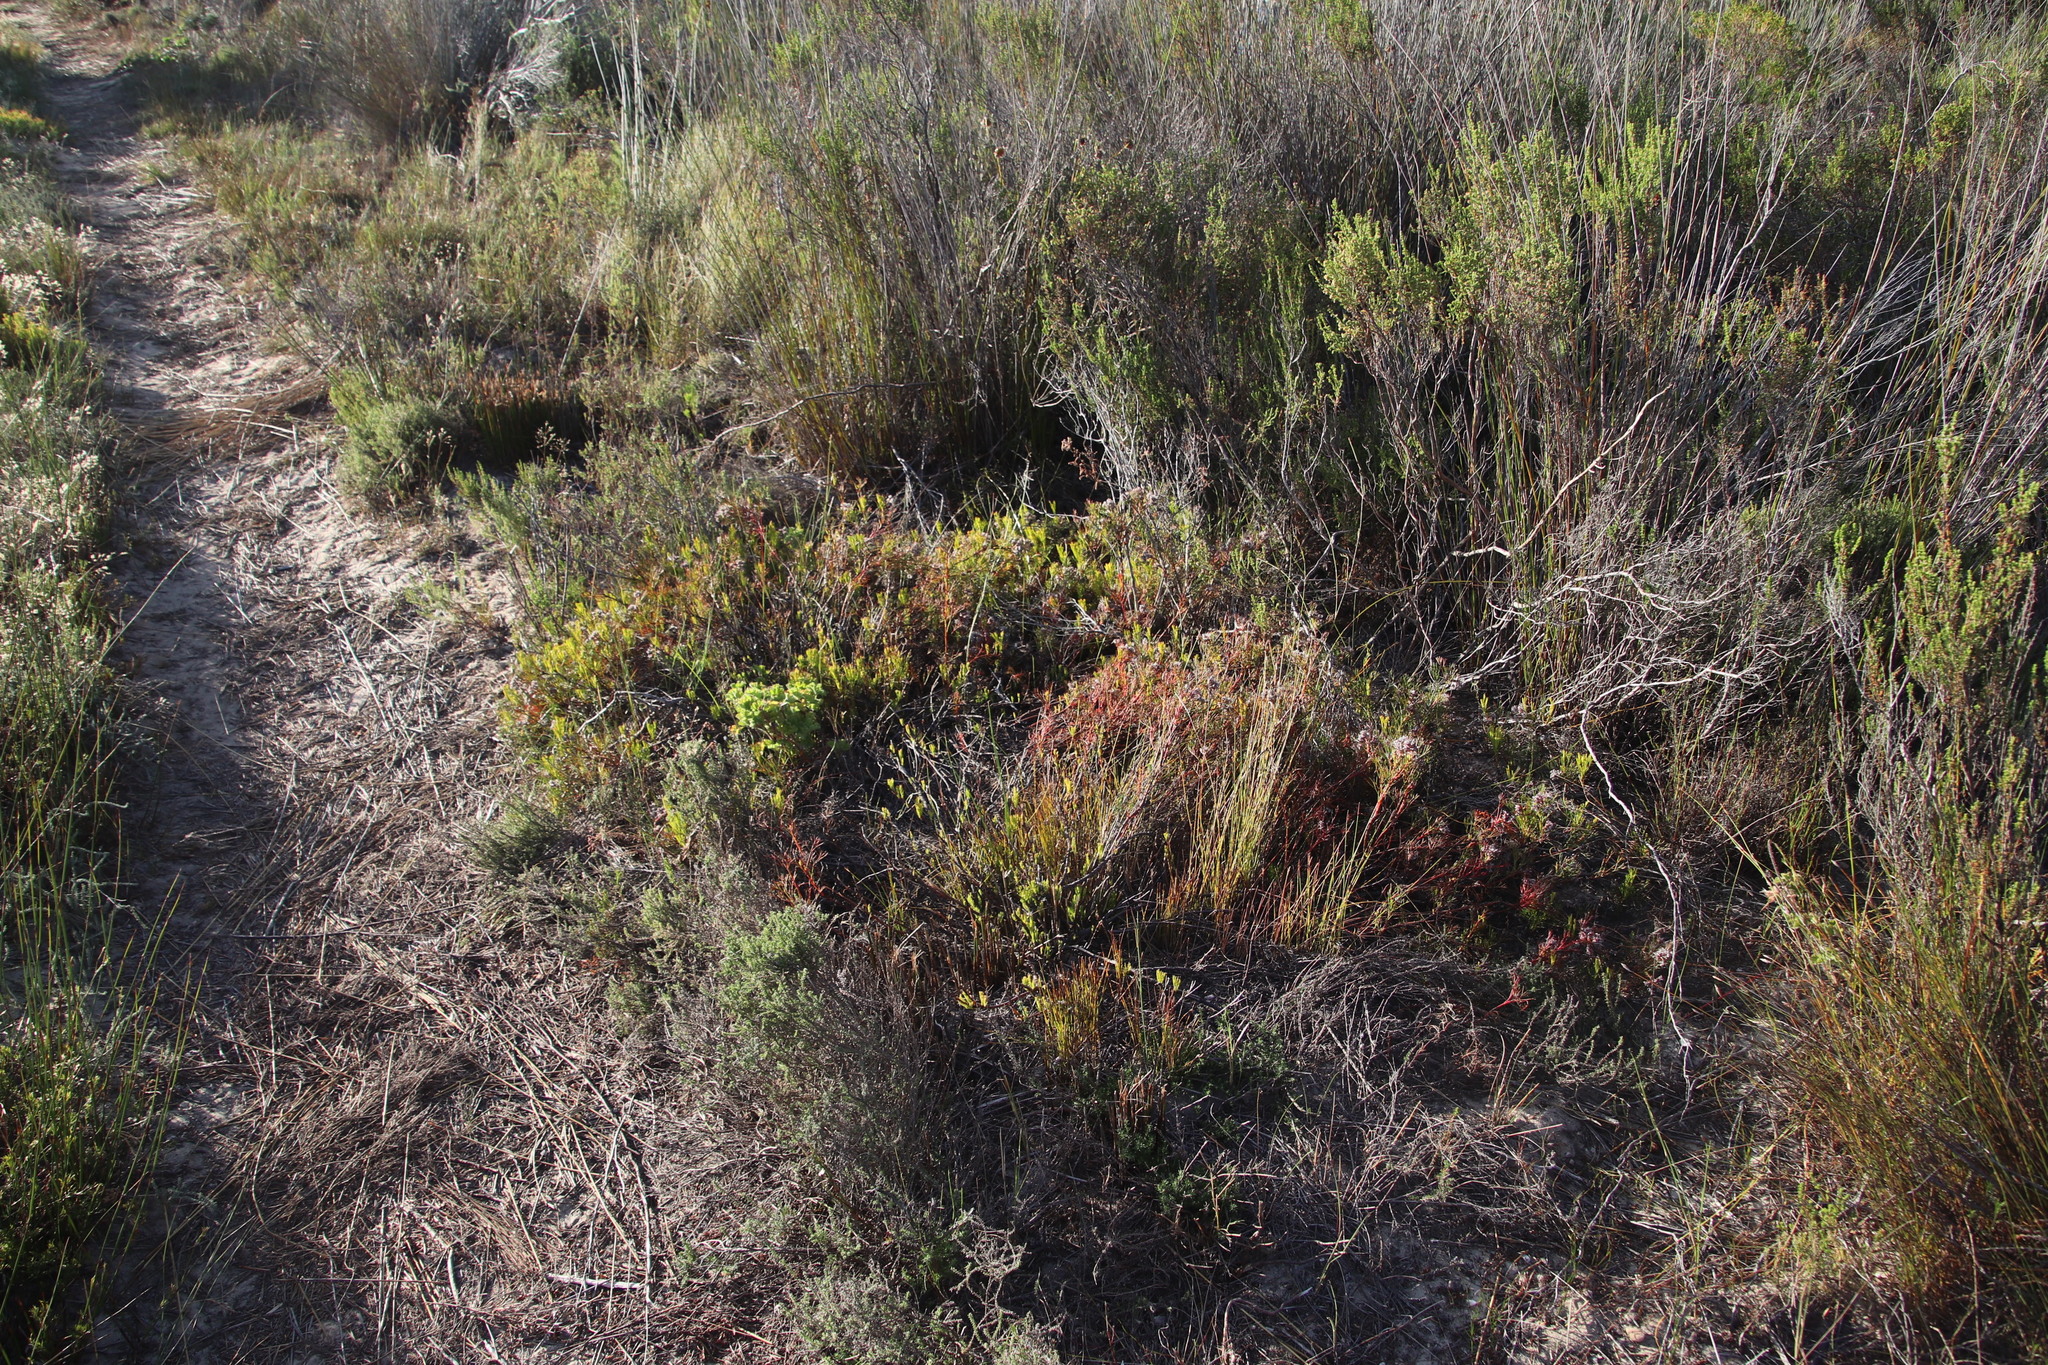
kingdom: Plantae
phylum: Tracheophyta
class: Magnoliopsida
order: Proteales
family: Proteaceae
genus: Serruria
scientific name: Serruria rubricaulis
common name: Red-stem spiderhead
